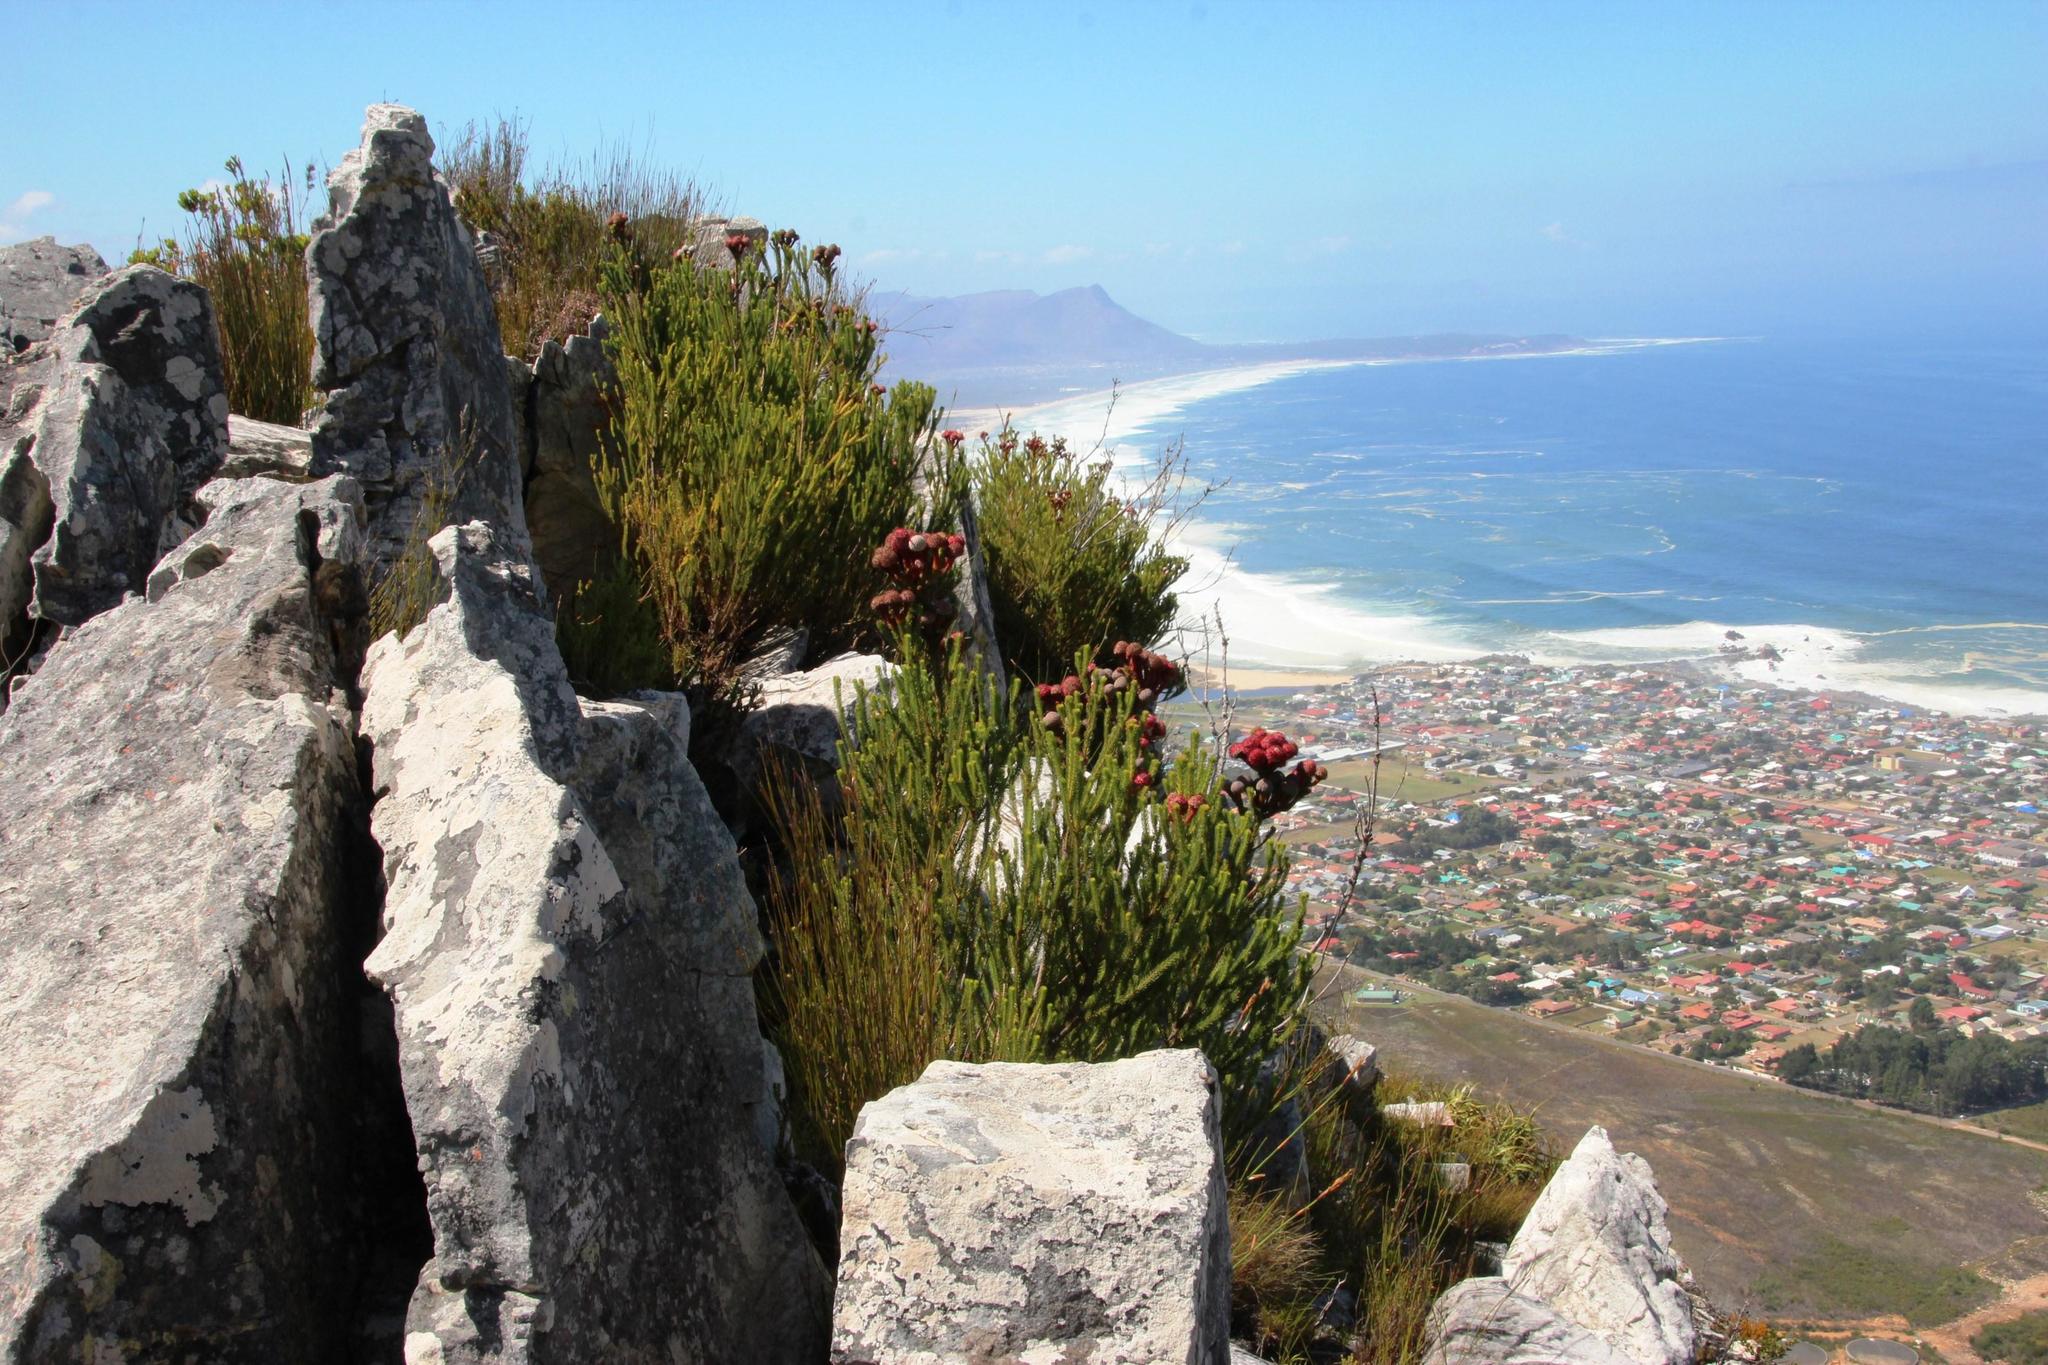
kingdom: Plantae
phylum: Tracheophyta
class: Magnoliopsida
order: Bruniales
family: Bruniaceae
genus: Berzelia
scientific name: Berzelia stokoei
